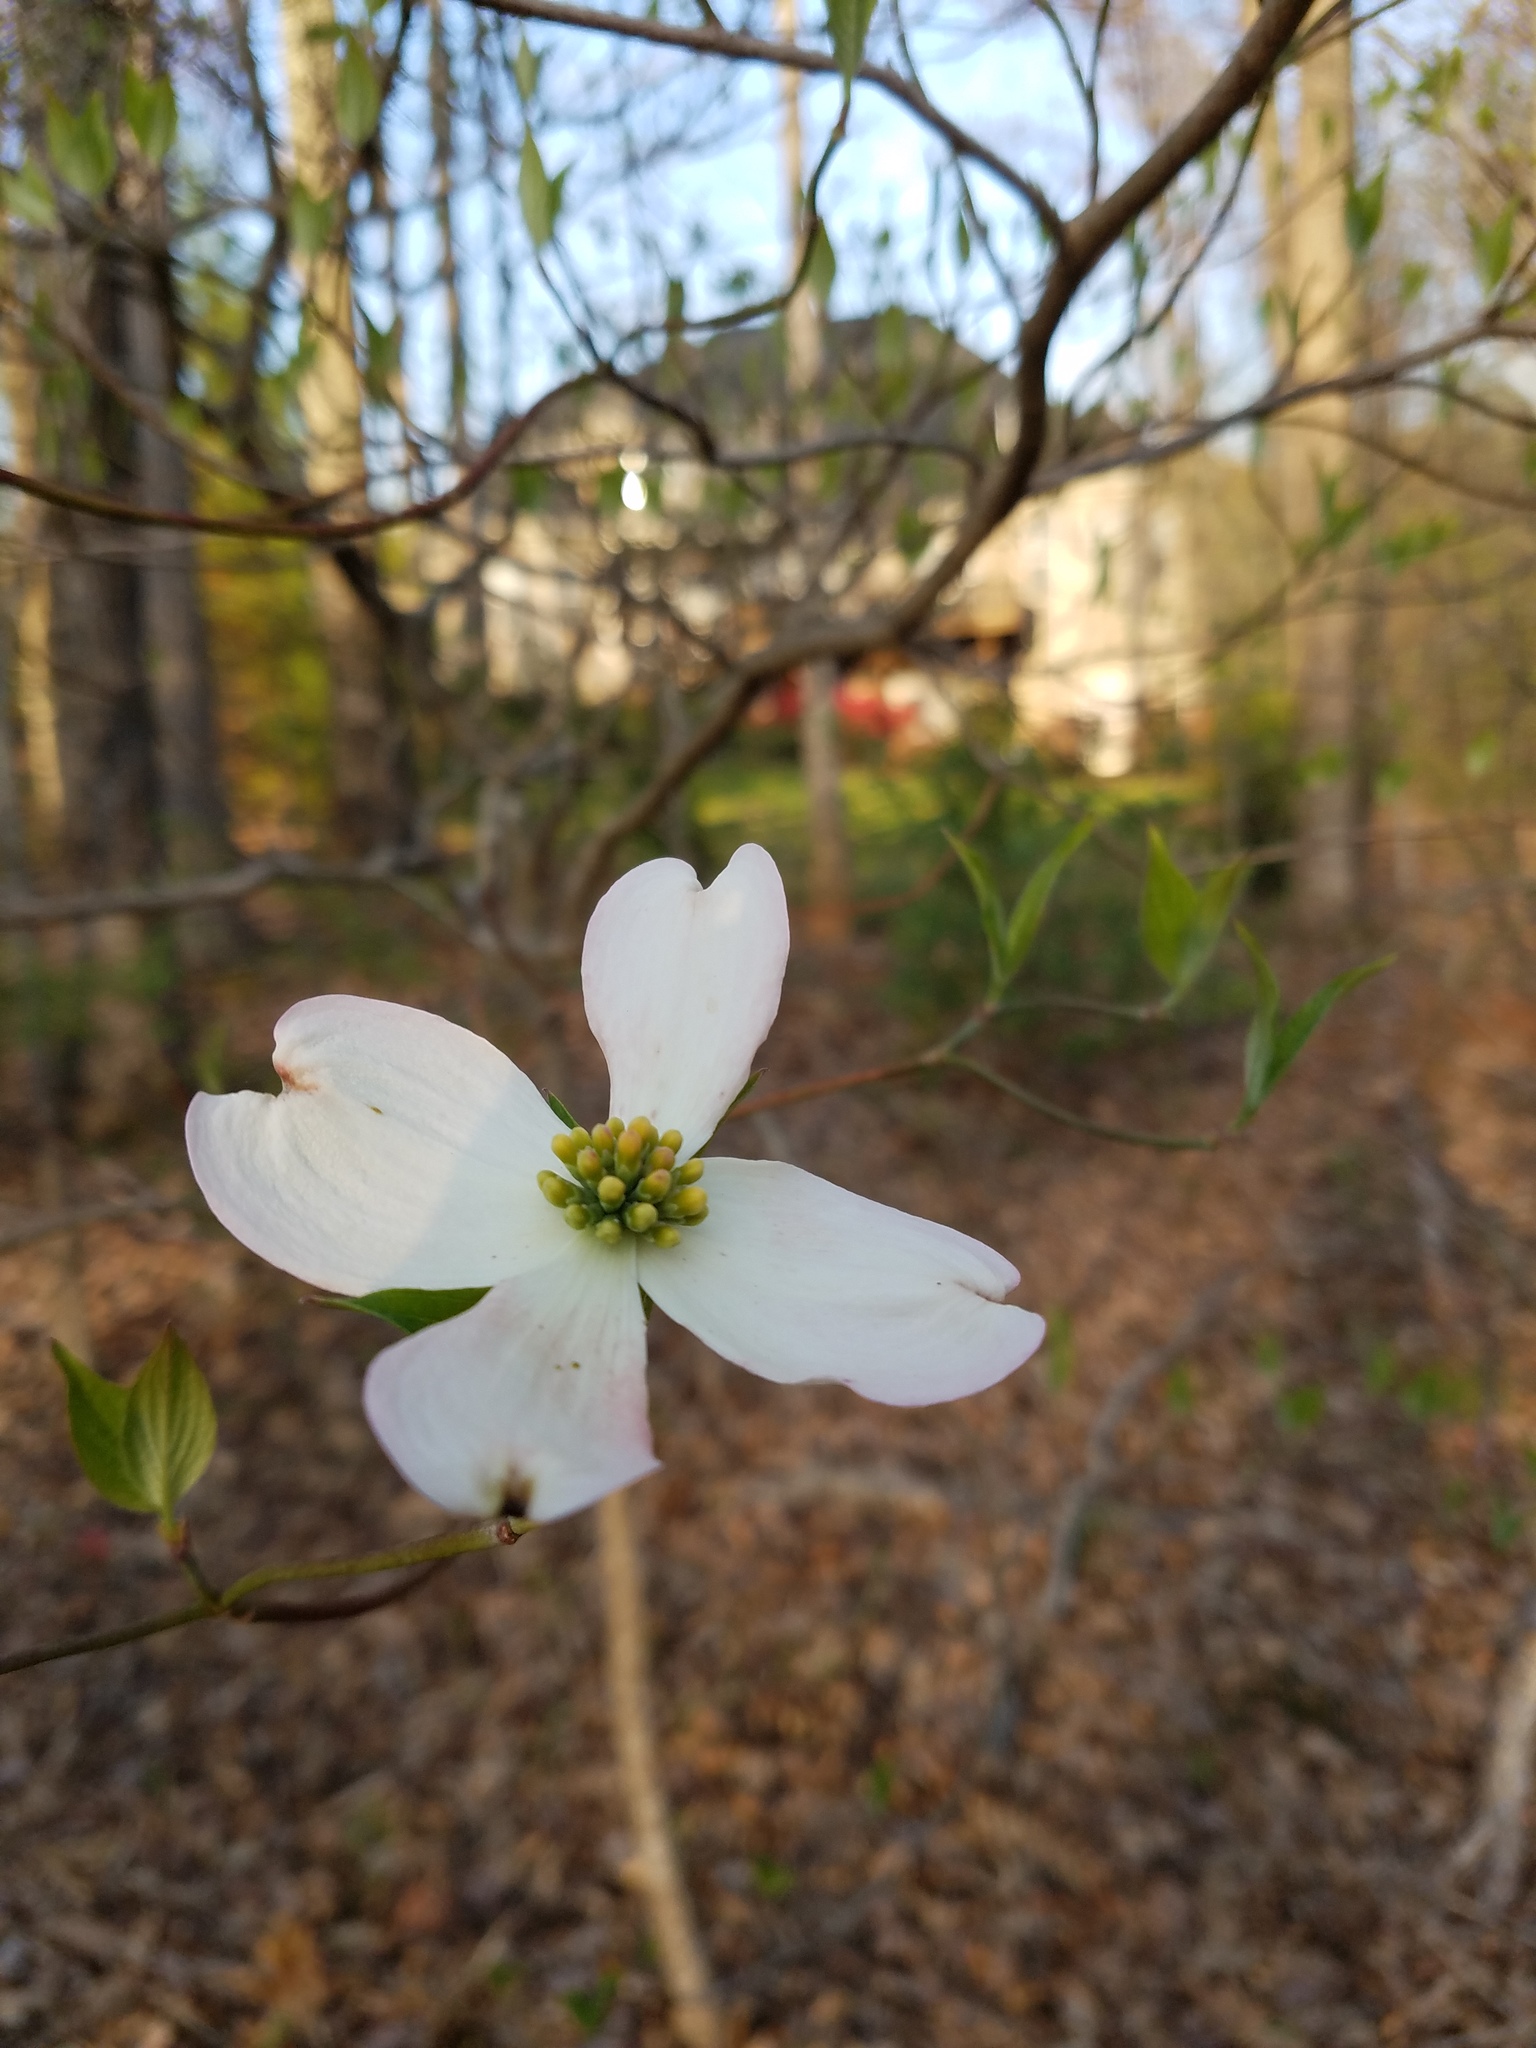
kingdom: Plantae
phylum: Tracheophyta
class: Magnoliopsida
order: Cornales
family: Cornaceae
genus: Cornus
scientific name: Cornus florida
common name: Flowering dogwood
